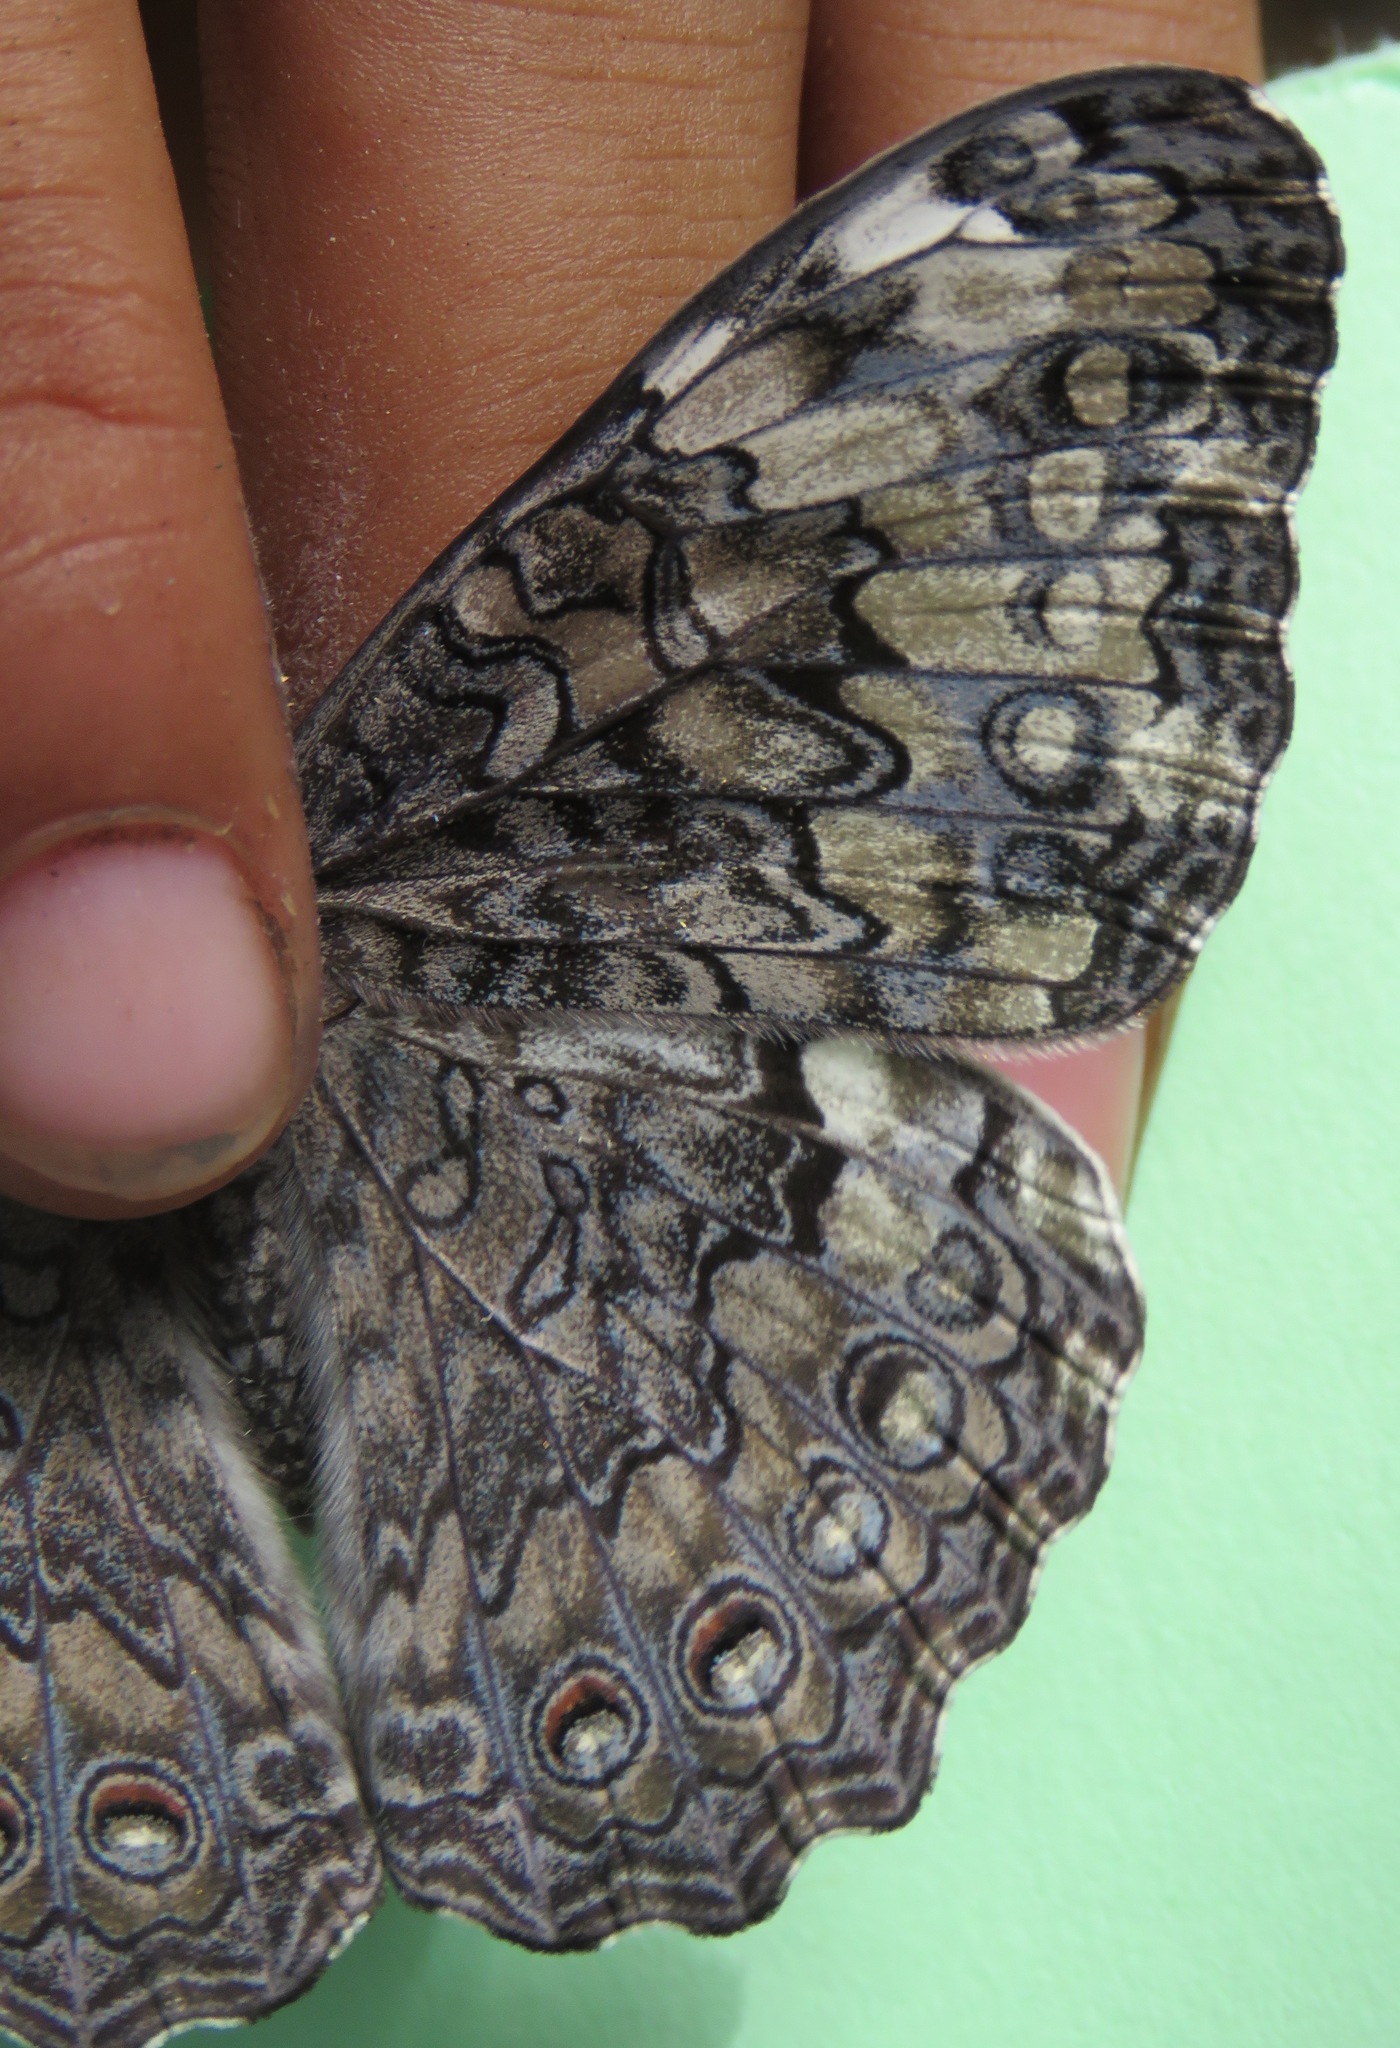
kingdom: Animalia
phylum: Arthropoda
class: Insecta
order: Lepidoptera
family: Nymphalidae
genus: Hamadryas
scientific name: Hamadryas glauconome
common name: Glaucous cracker
